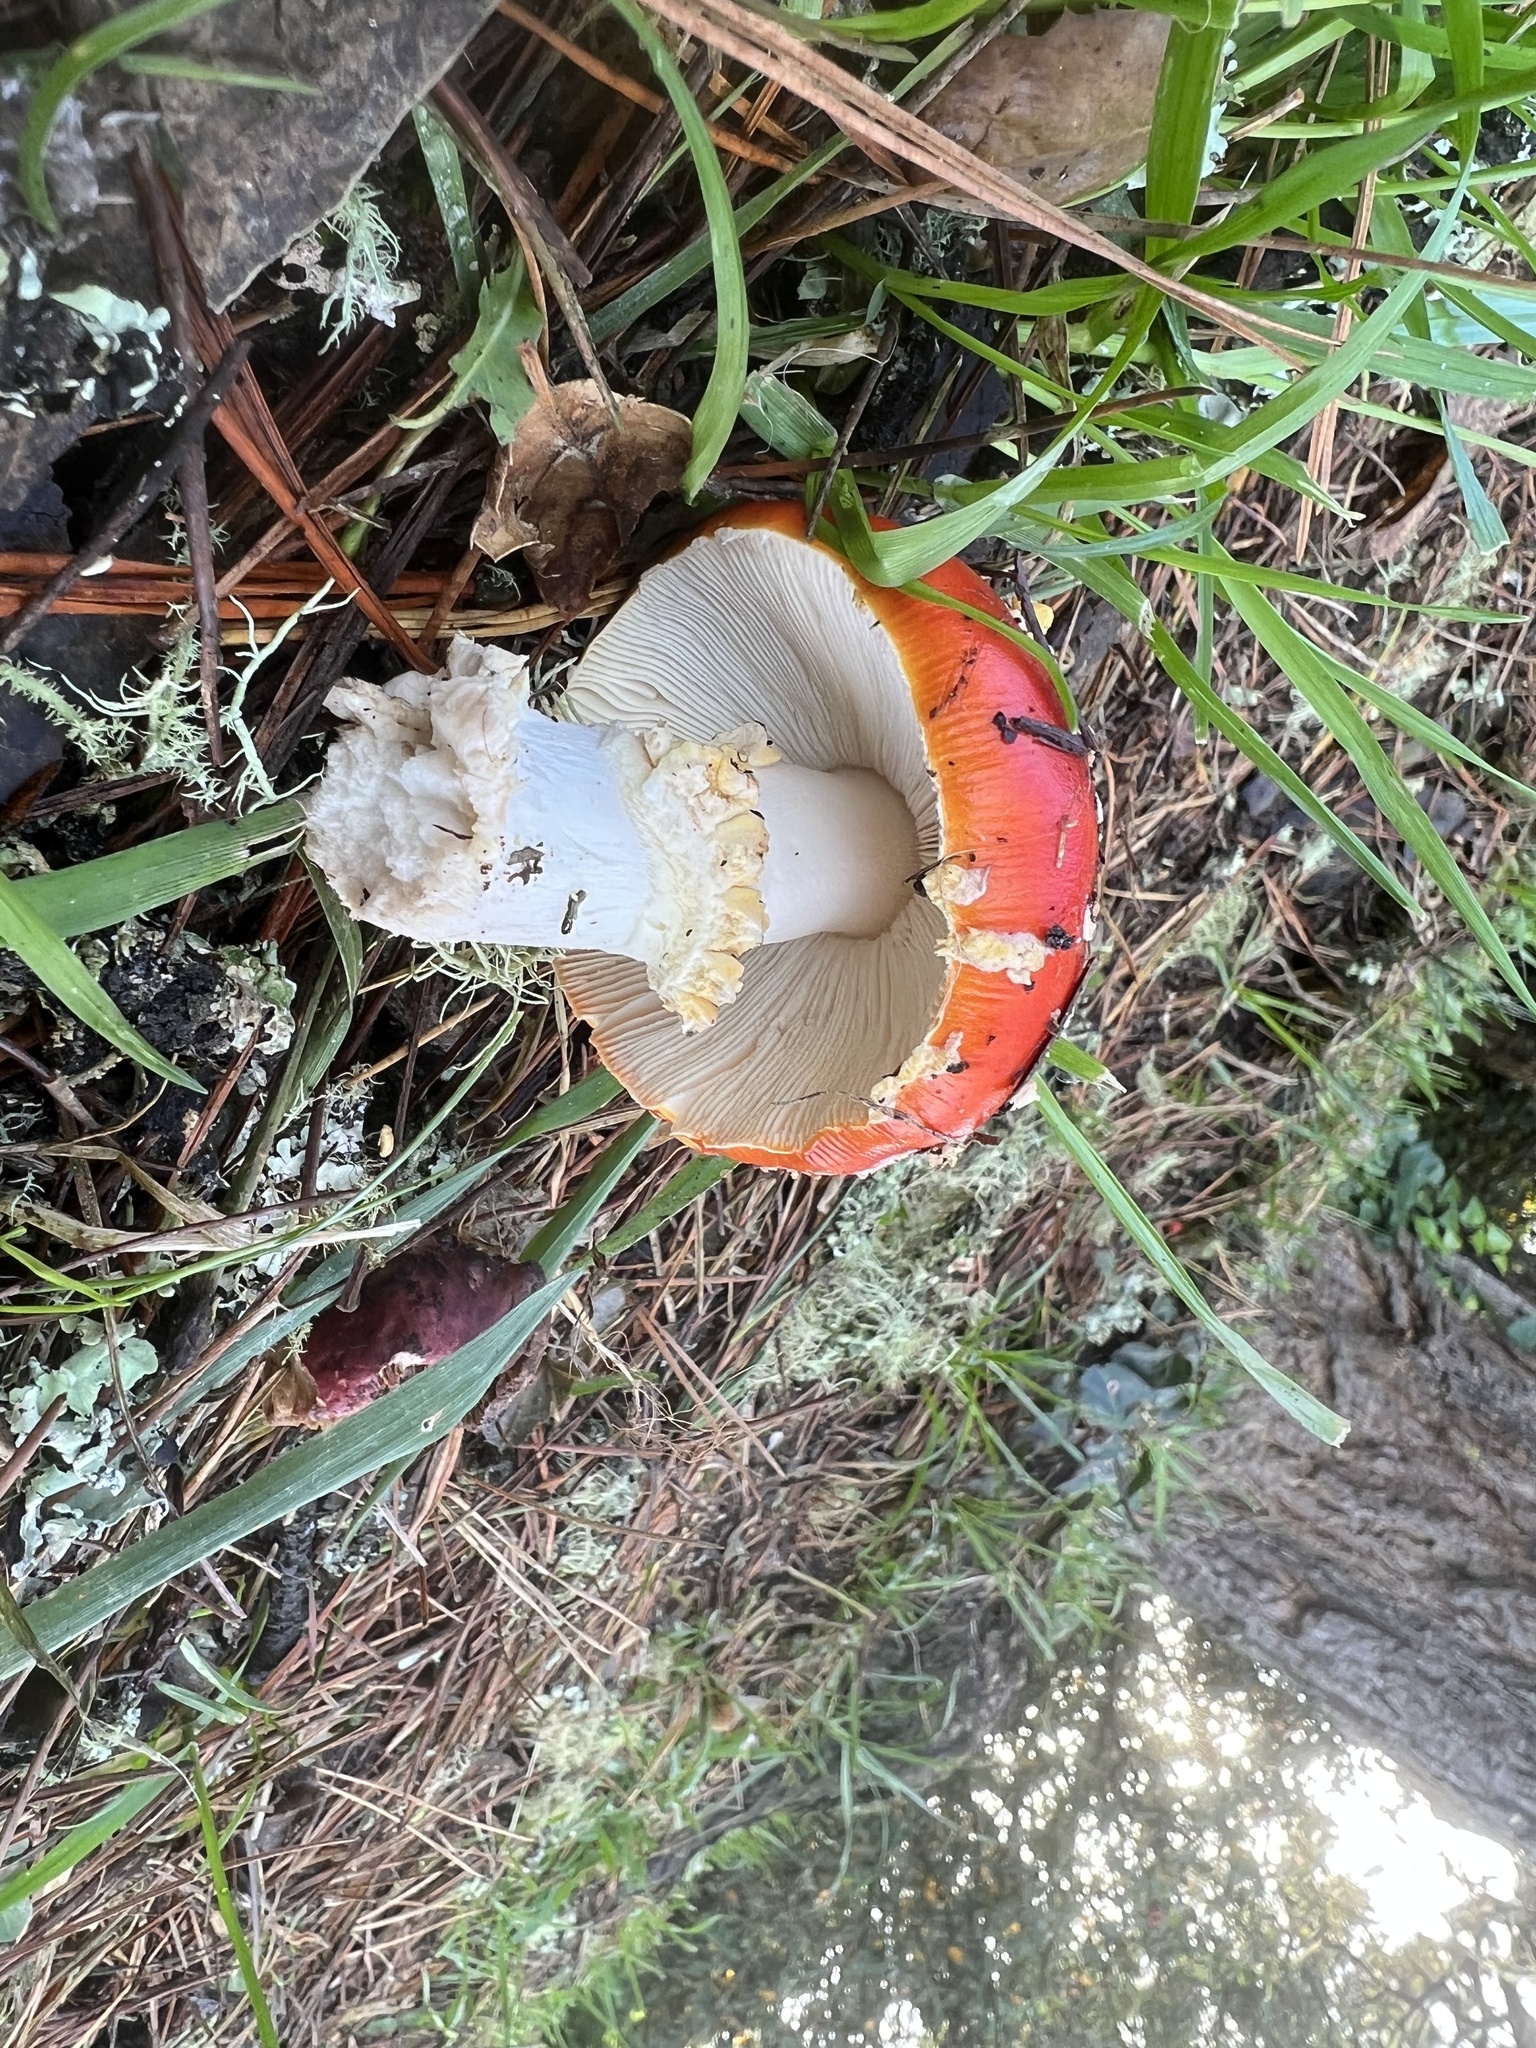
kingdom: Fungi
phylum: Basidiomycota
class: Agaricomycetes
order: Agaricales
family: Amanitaceae
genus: Amanita
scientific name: Amanita muscaria
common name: Fly agaric
